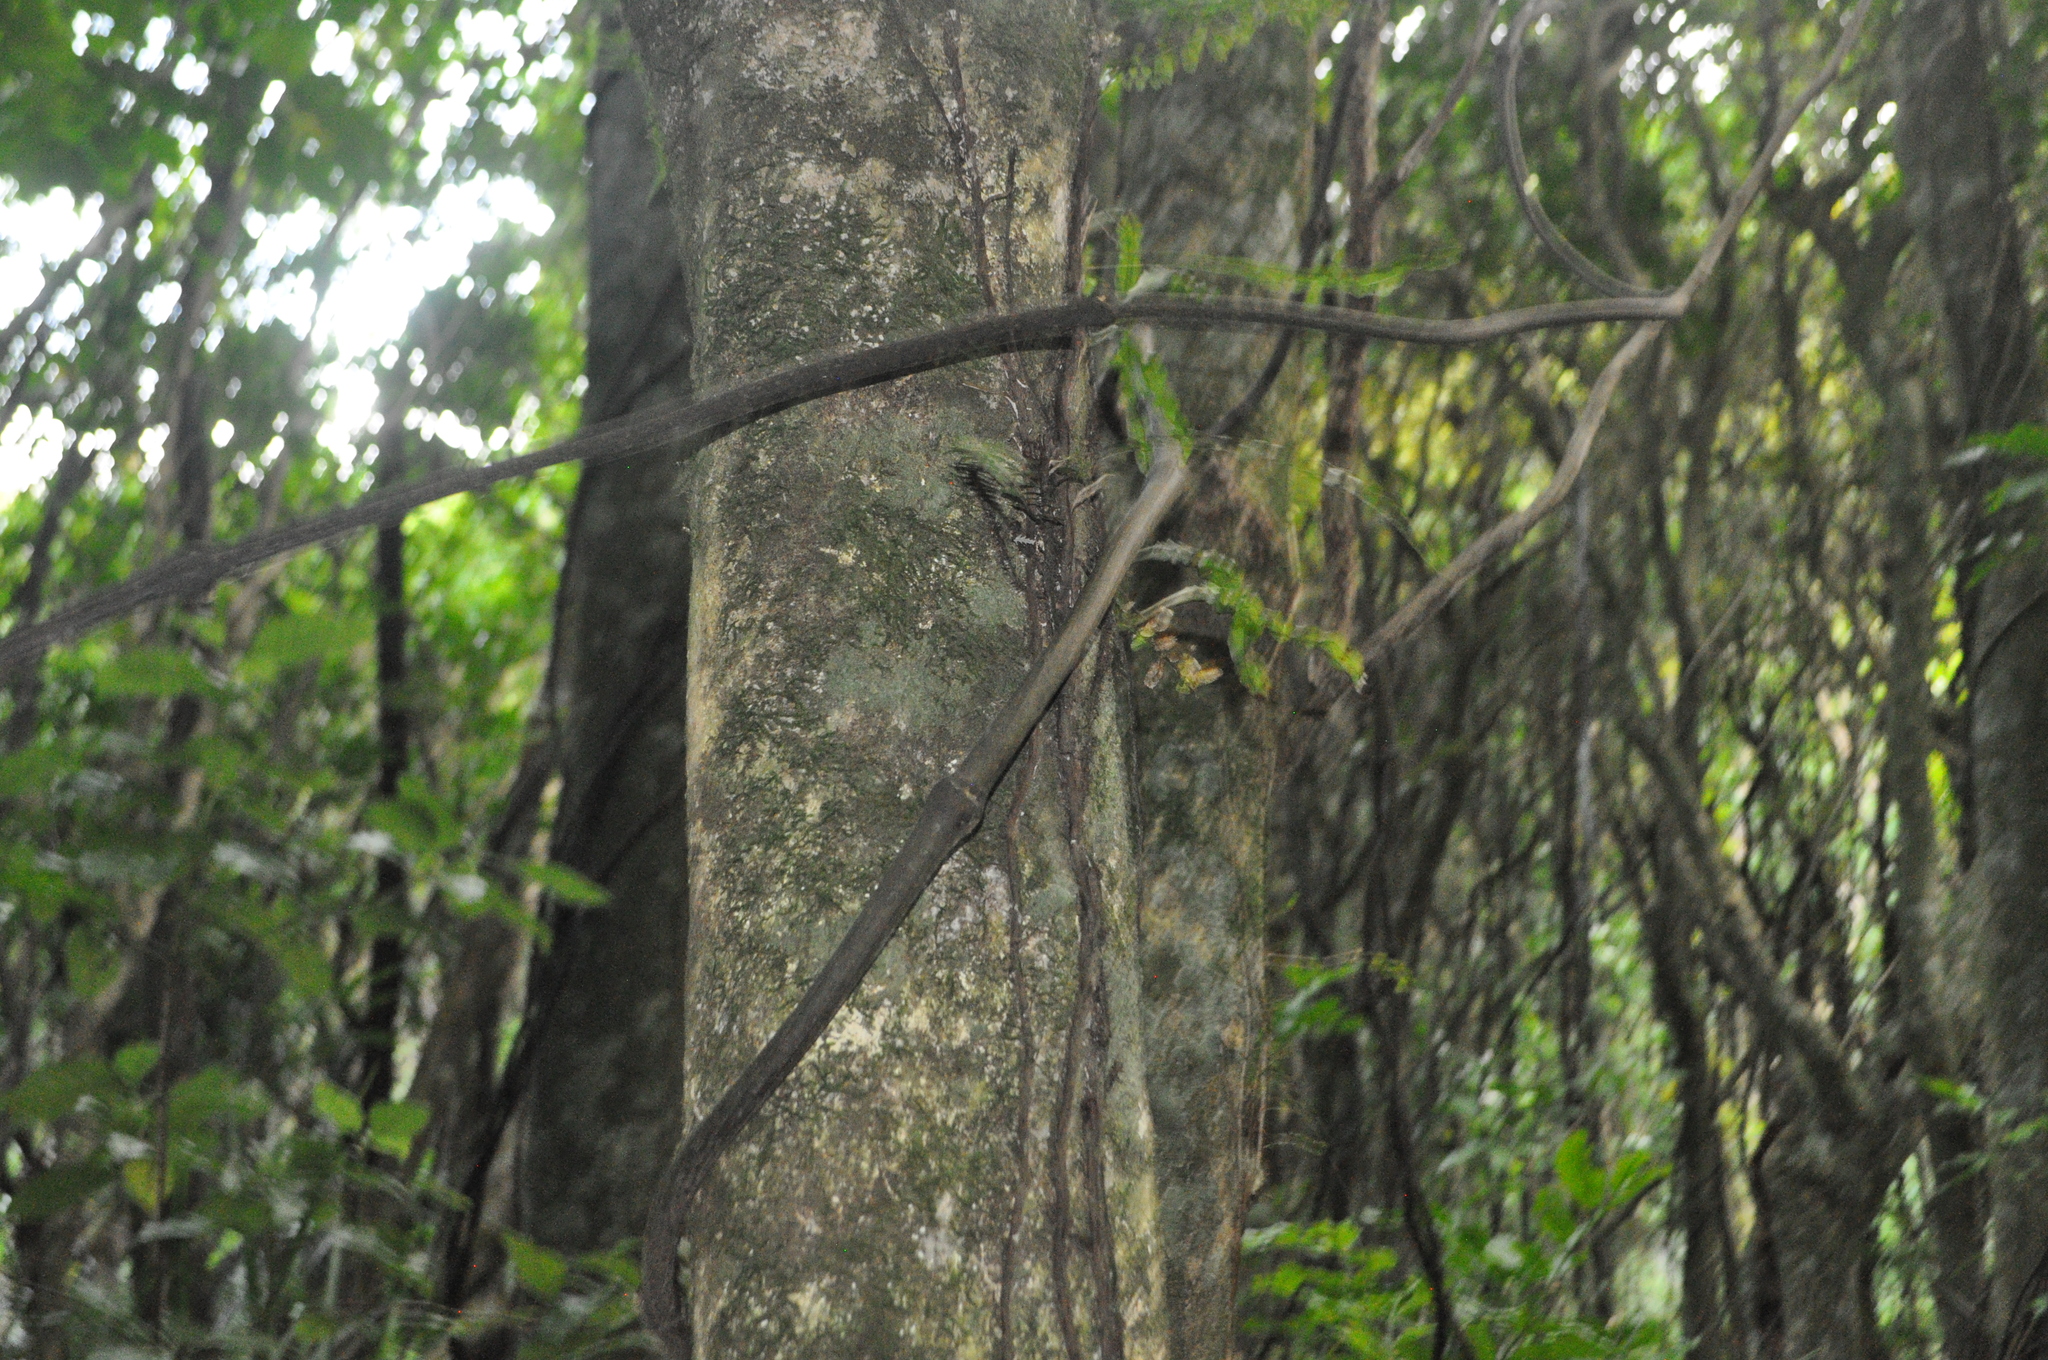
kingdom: Plantae
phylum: Tracheophyta
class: Liliopsida
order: Liliales
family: Ripogonaceae
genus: Ripogonum
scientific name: Ripogonum scandens
